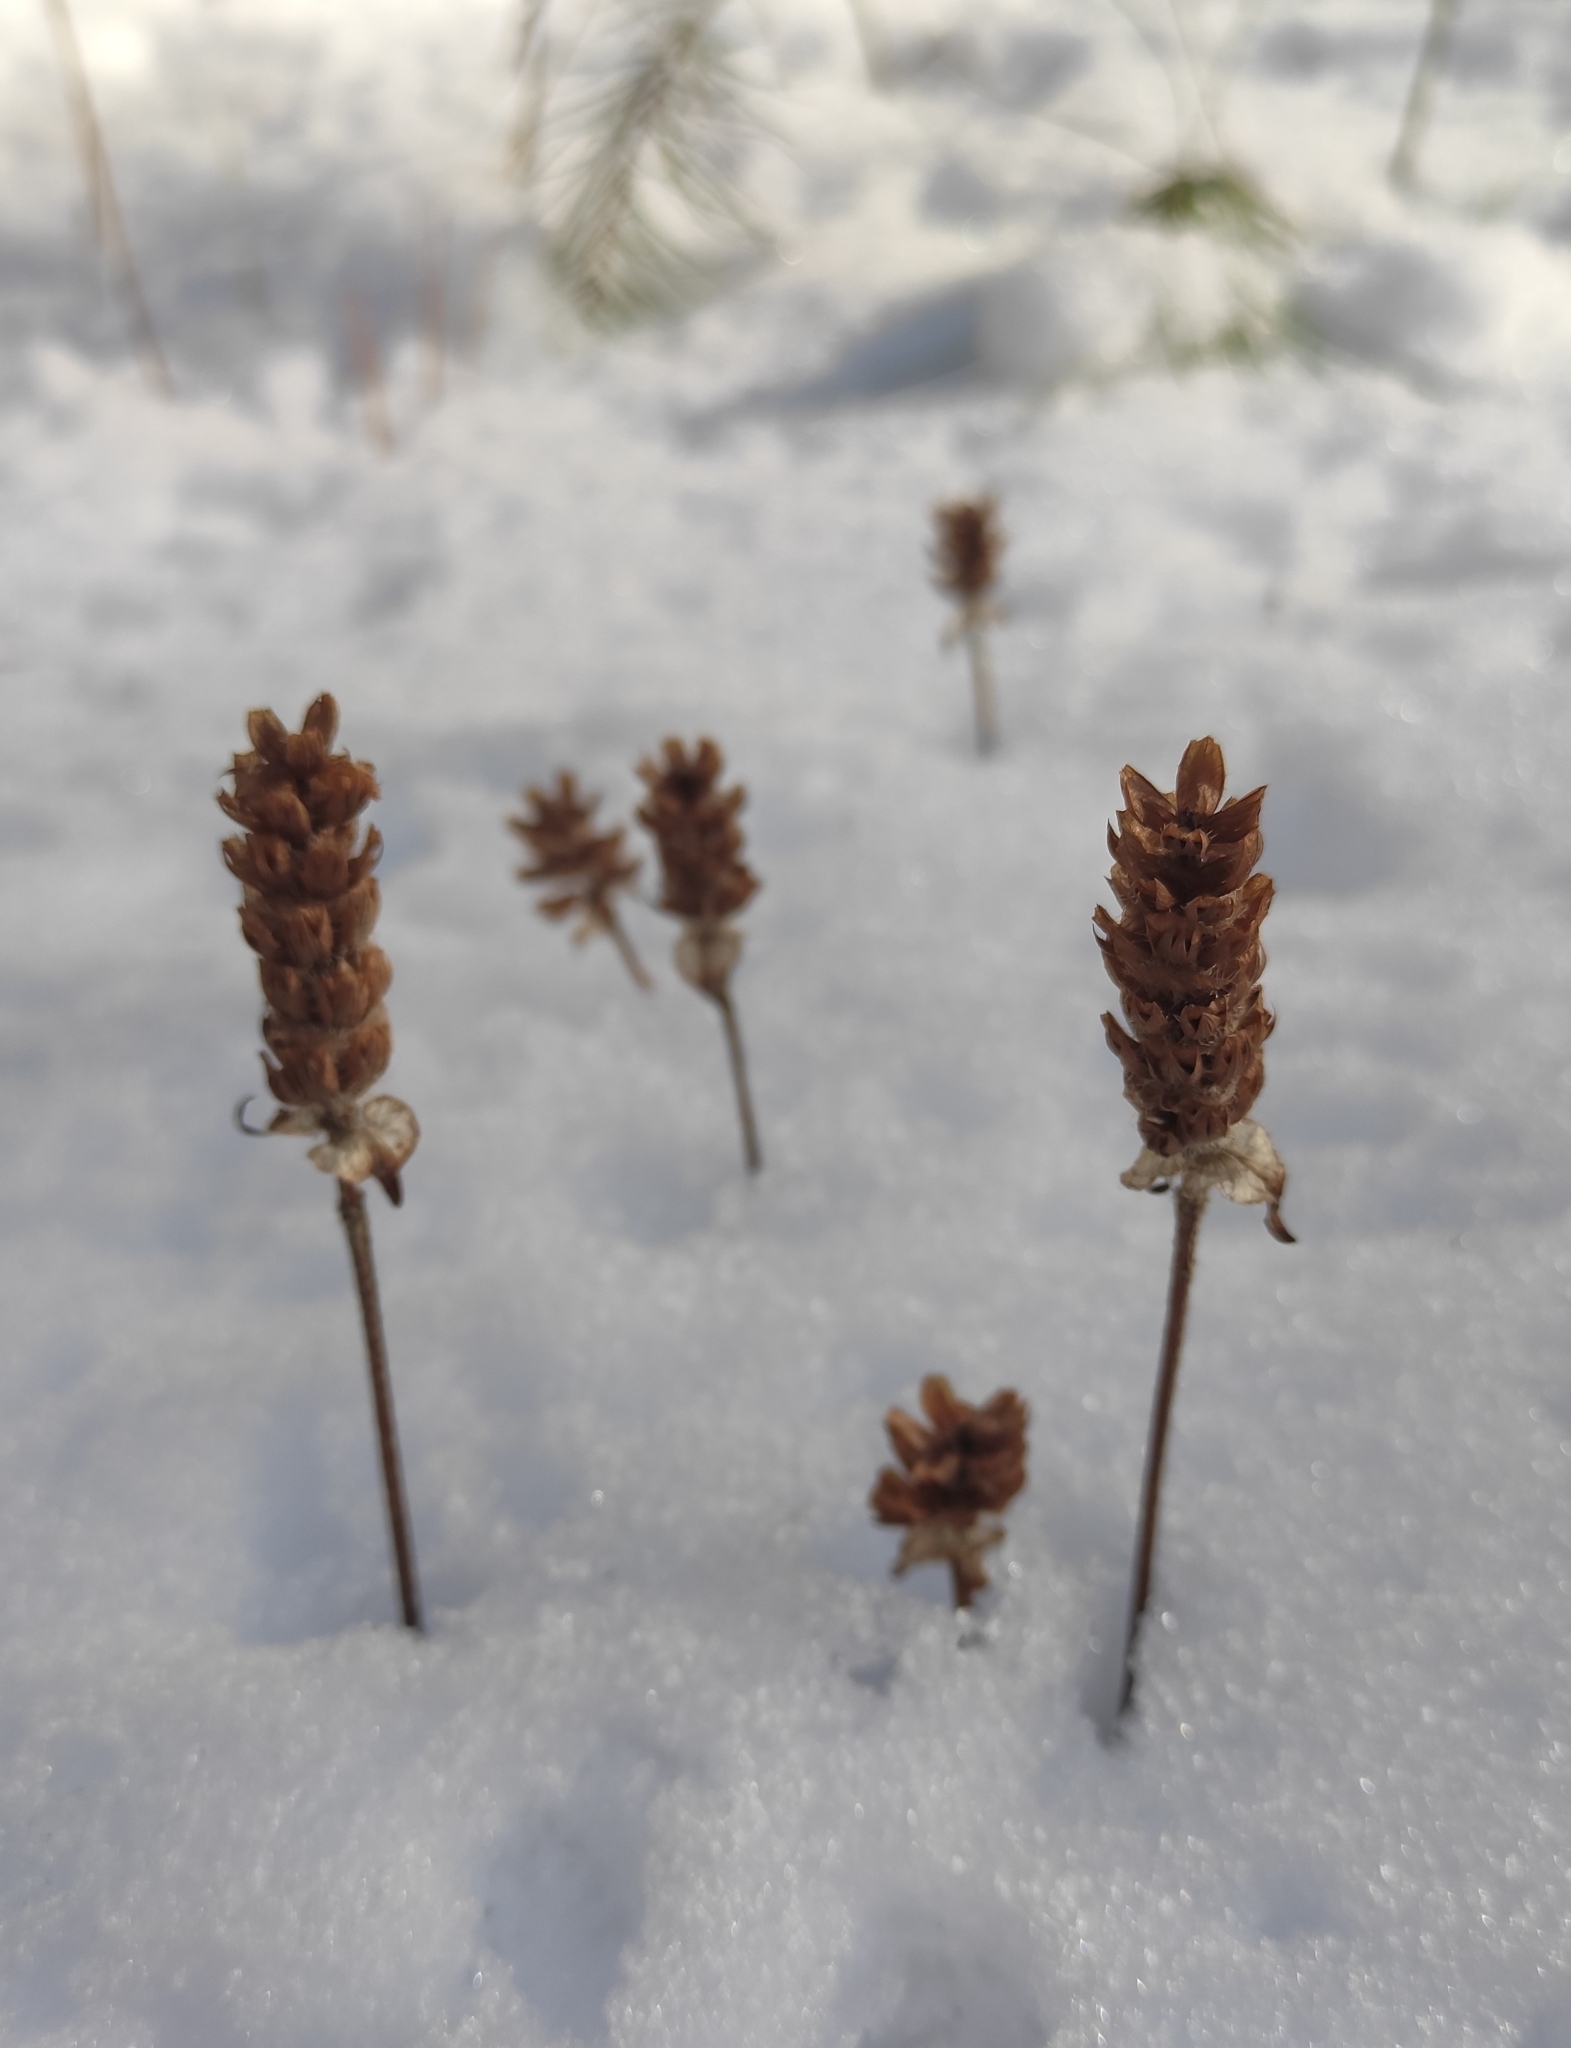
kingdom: Plantae
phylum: Tracheophyta
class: Magnoliopsida
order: Lamiales
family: Lamiaceae
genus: Prunella
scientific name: Prunella vulgaris
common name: Heal-all
